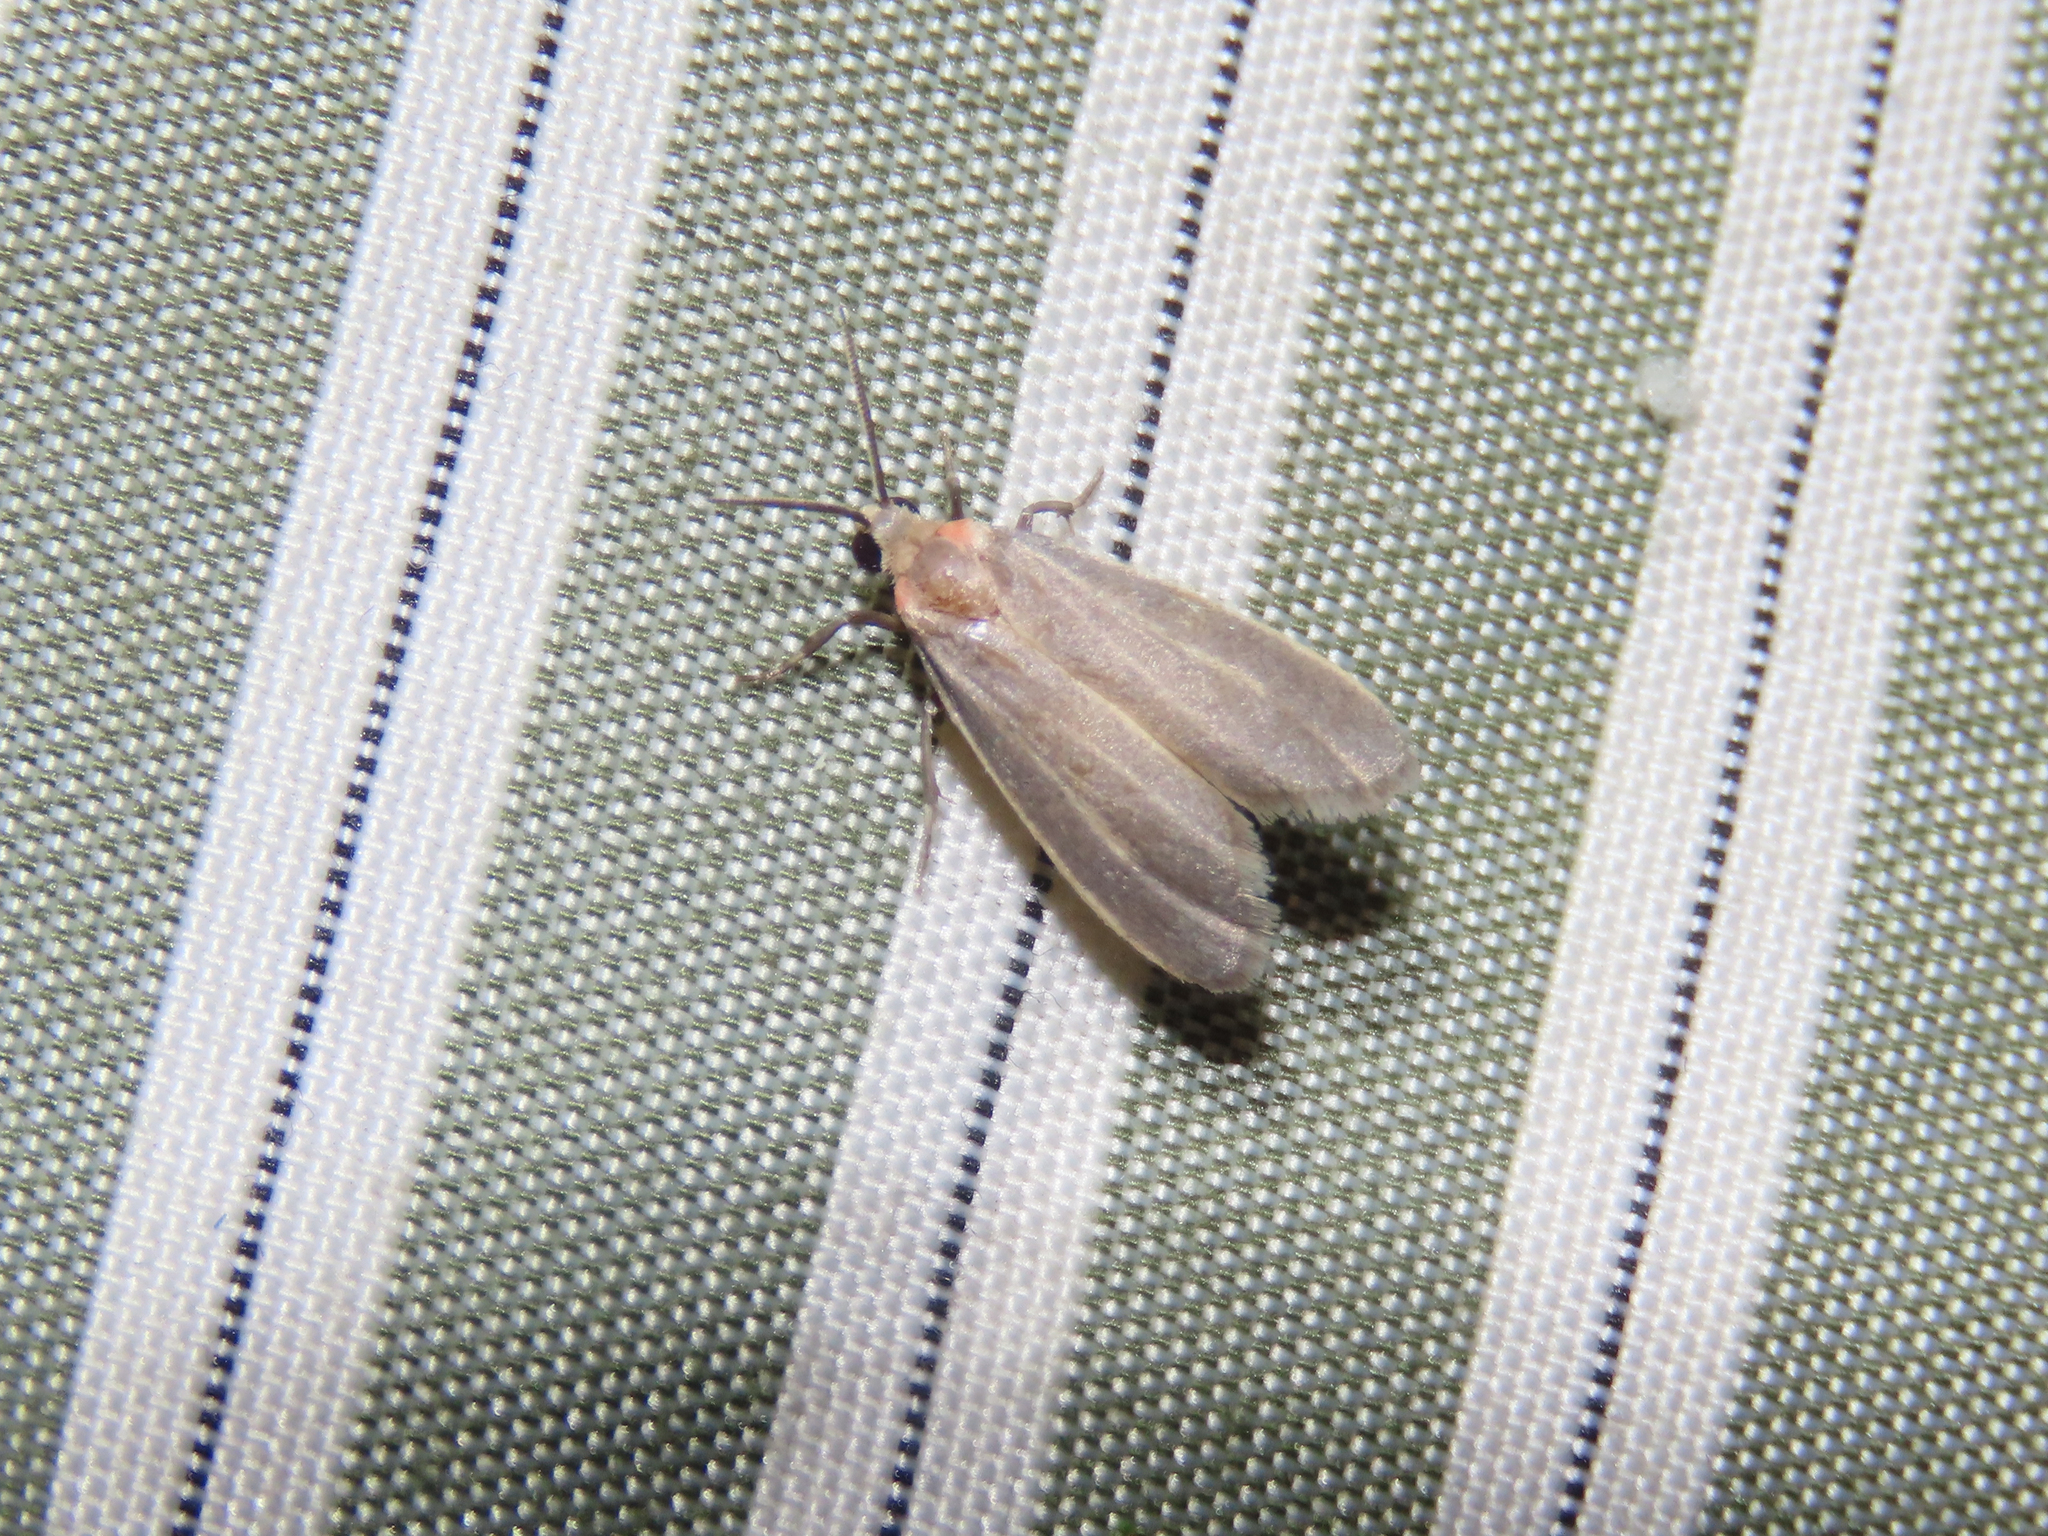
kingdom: Animalia
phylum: Arthropoda
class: Insecta
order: Lepidoptera
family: Erebidae
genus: Haematomis
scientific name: Haematomis uniformis
